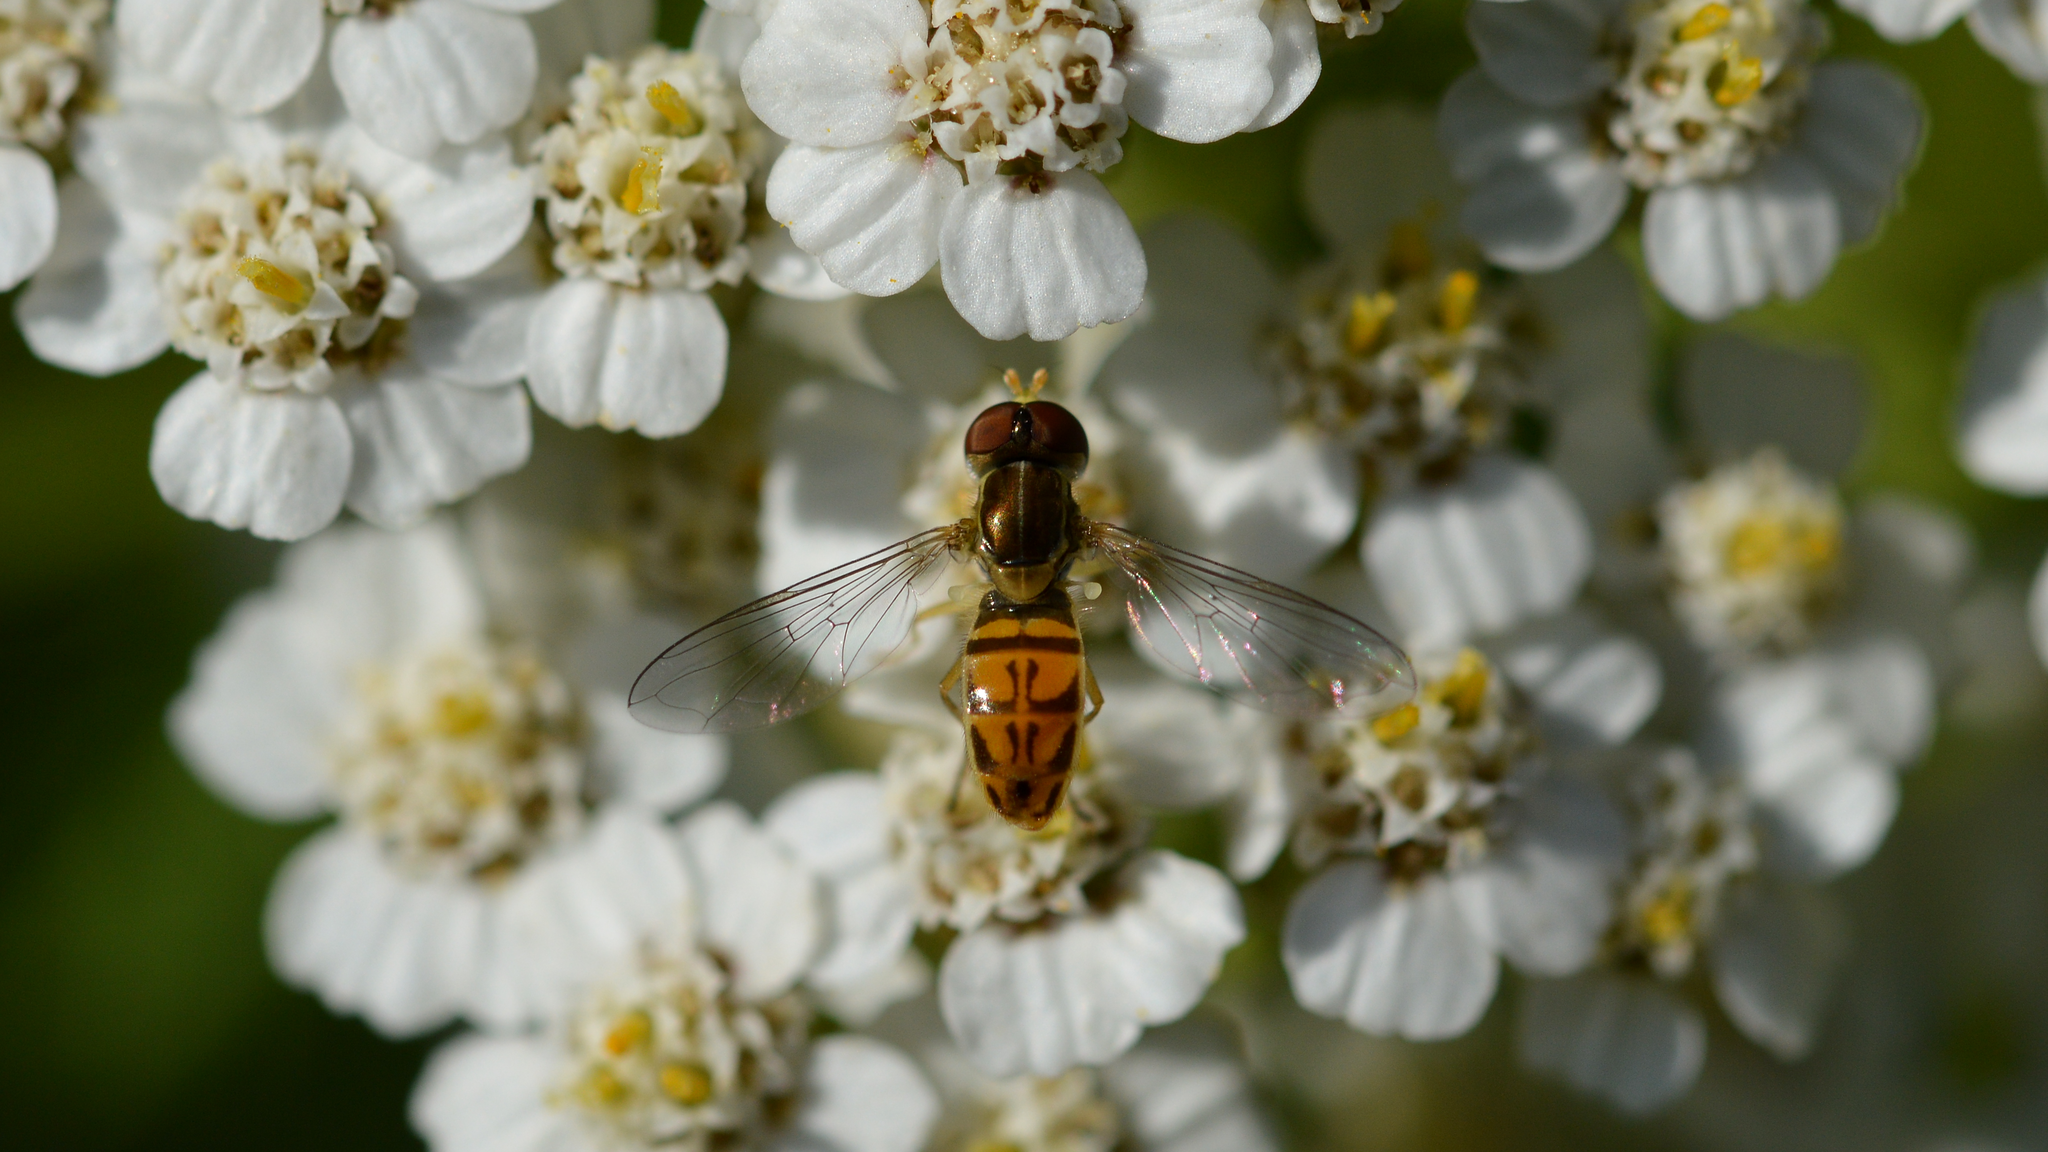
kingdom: Animalia
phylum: Arthropoda
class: Insecta
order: Diptera
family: Syrphidae
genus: Toxomerus
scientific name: Toxomerus marginatus
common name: Syrphid fly
